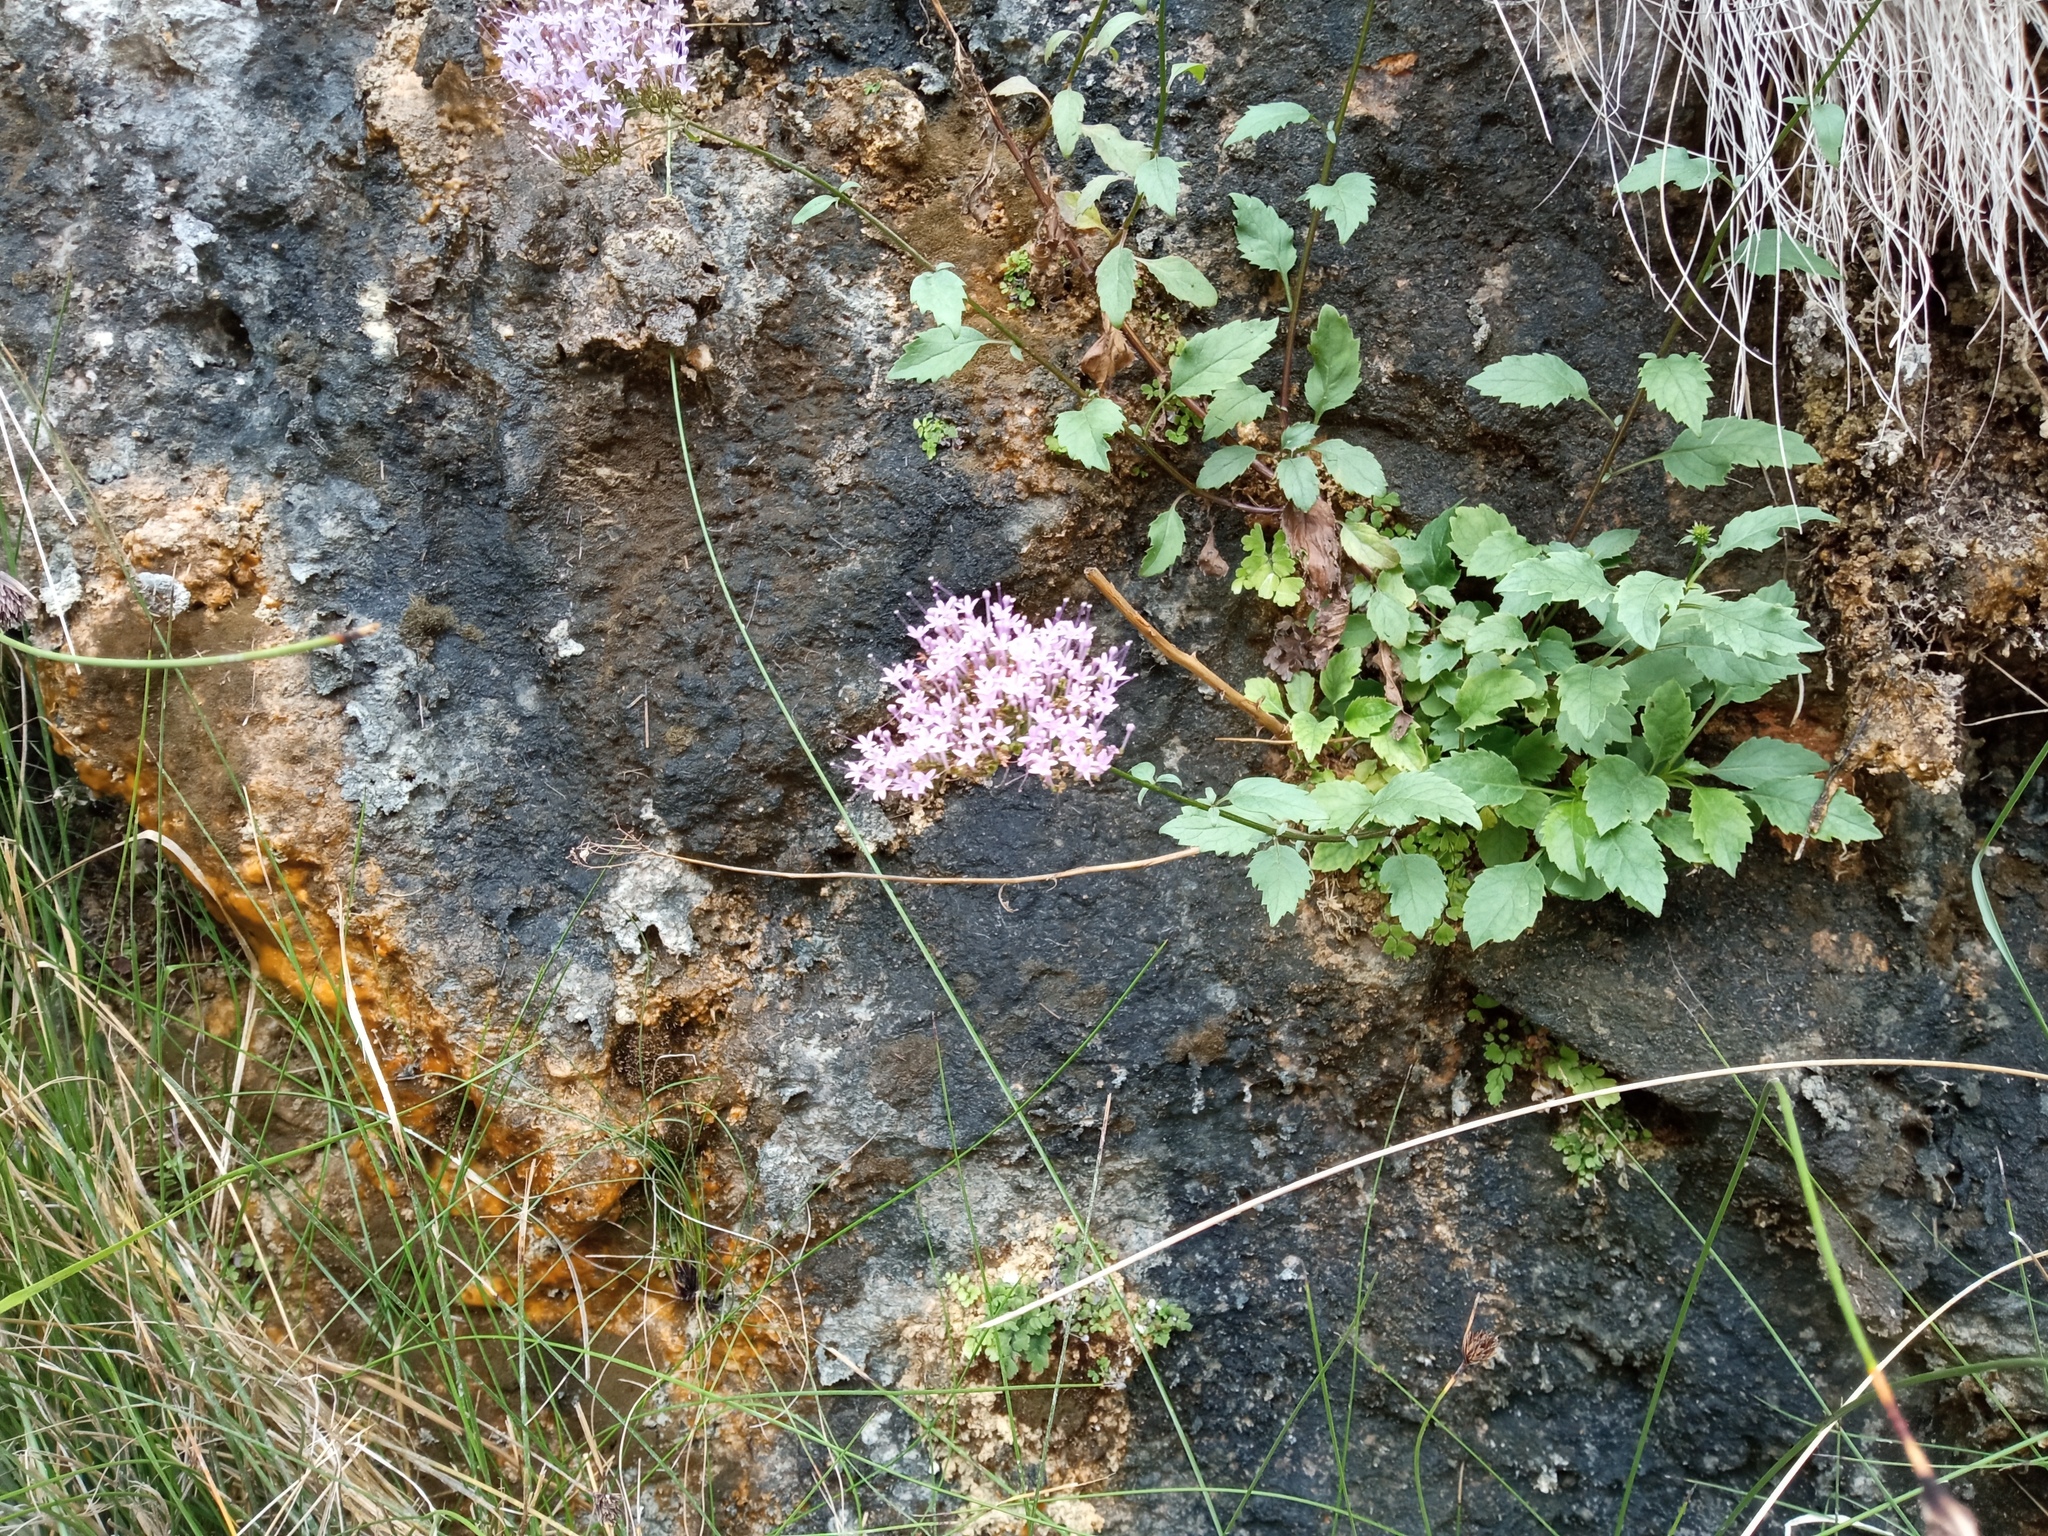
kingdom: Plantae
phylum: Tracheophyta
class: Magnoliopsida
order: Asterales
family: Campanulaceae
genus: Trachelium
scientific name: Trachelium caeruleum
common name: Throatwort
